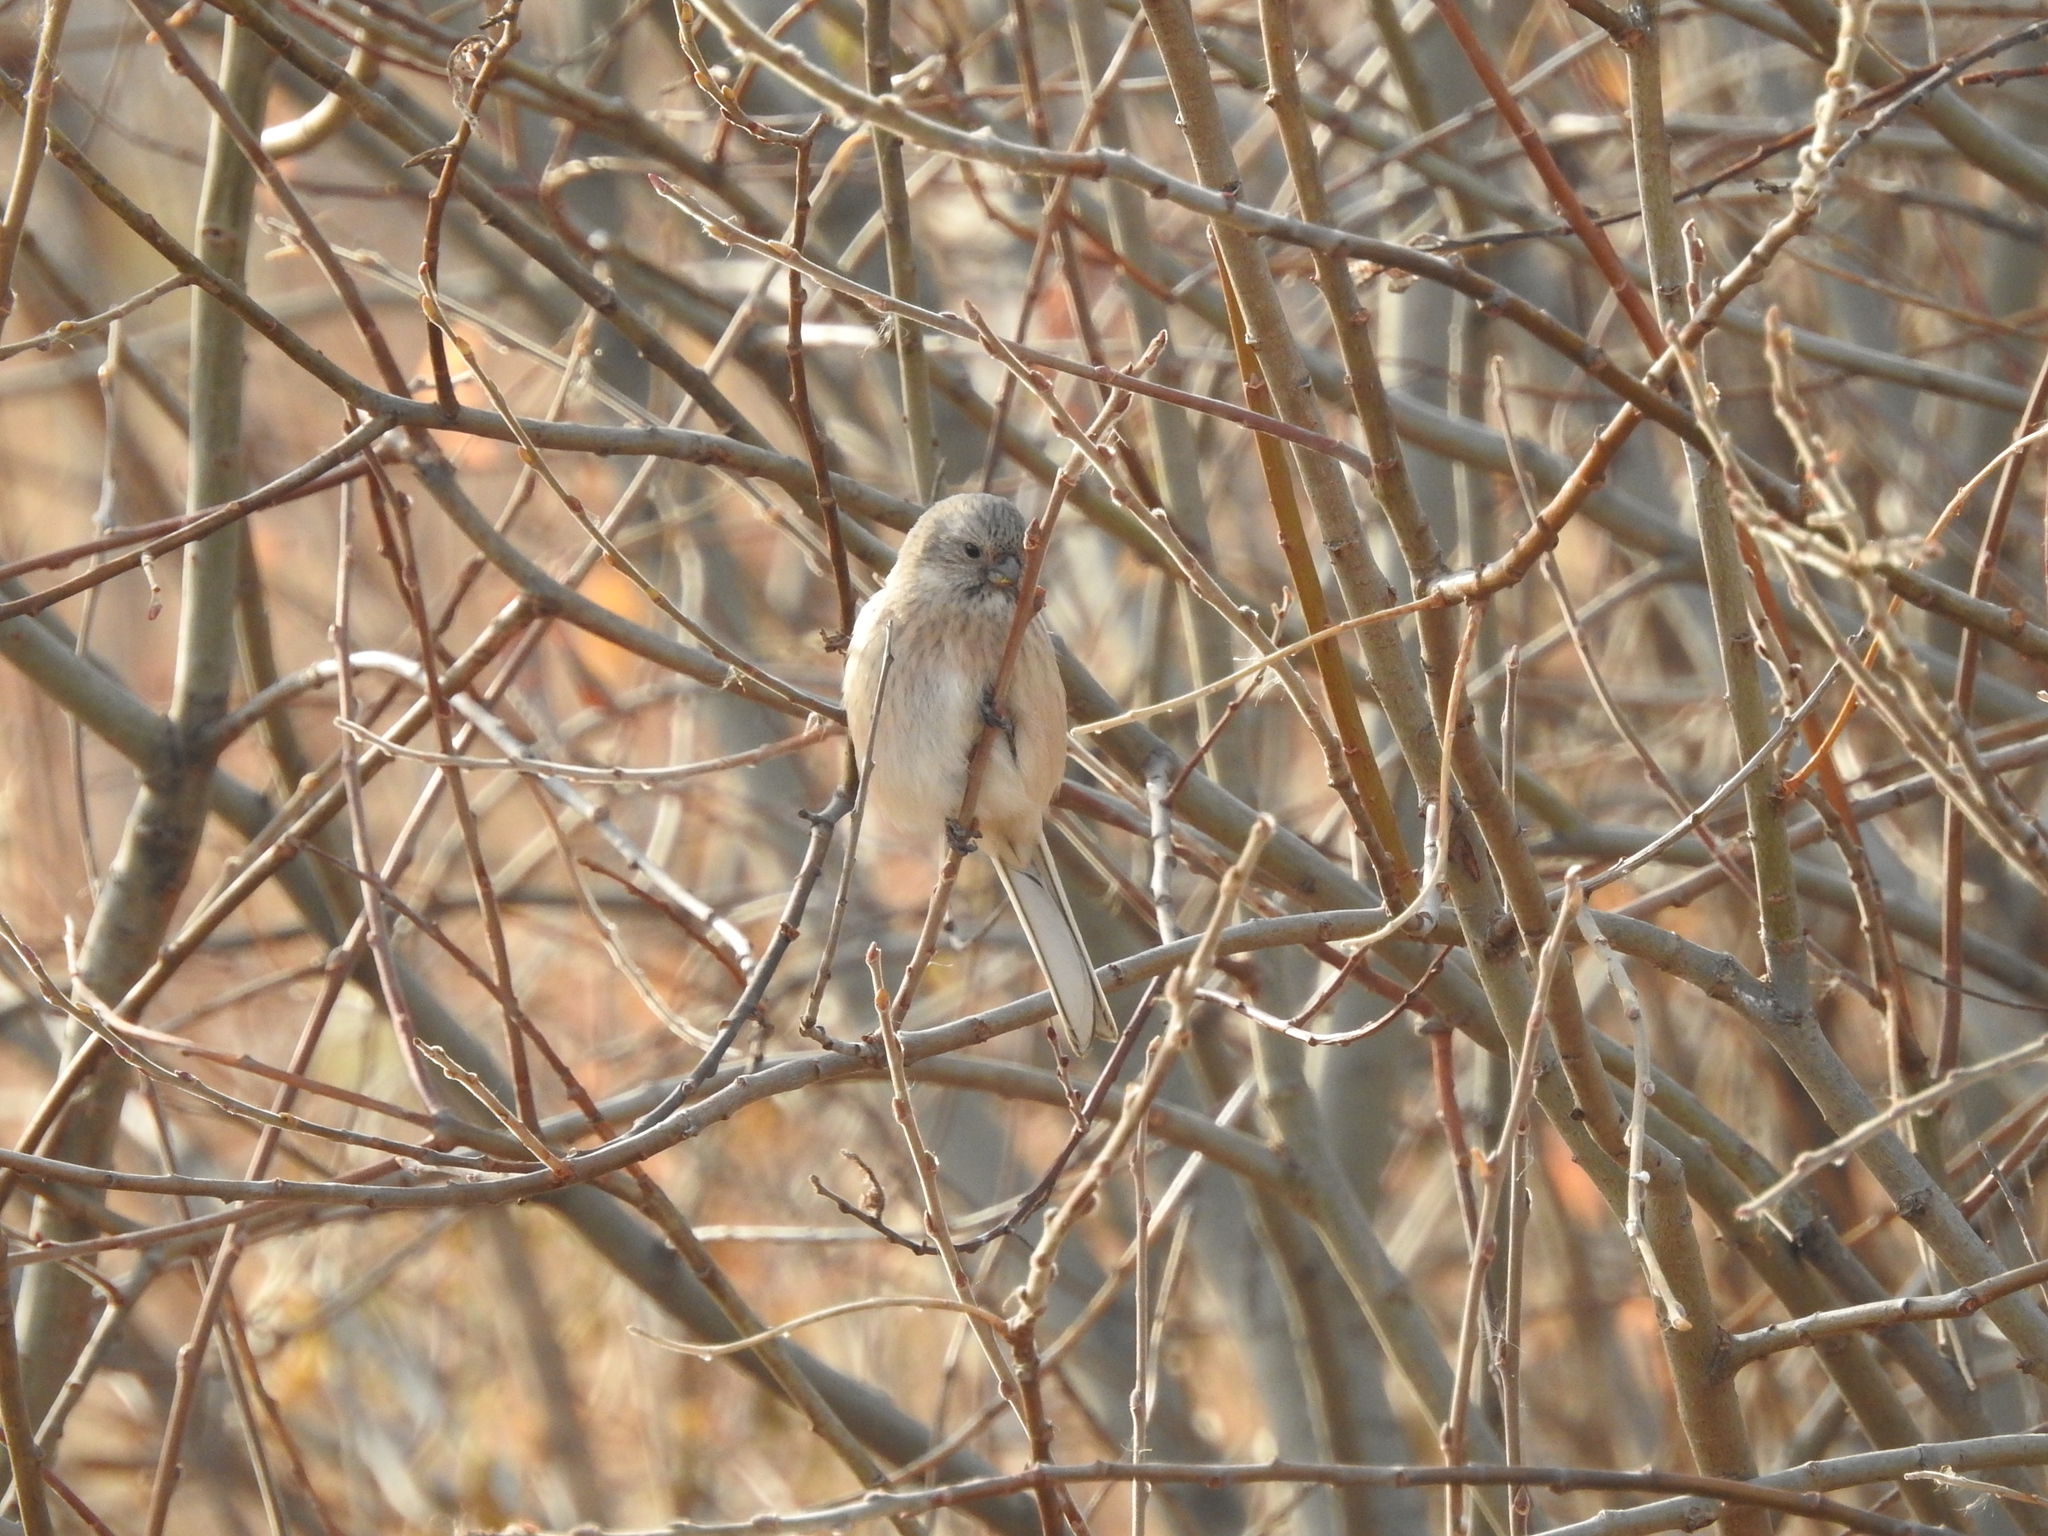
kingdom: Animalia
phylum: Chordata
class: Aves
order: Passeriformes
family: Fringillidae
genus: Carpodacus
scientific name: Carpodacus sibiricus
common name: Long-tailed rosefinch
